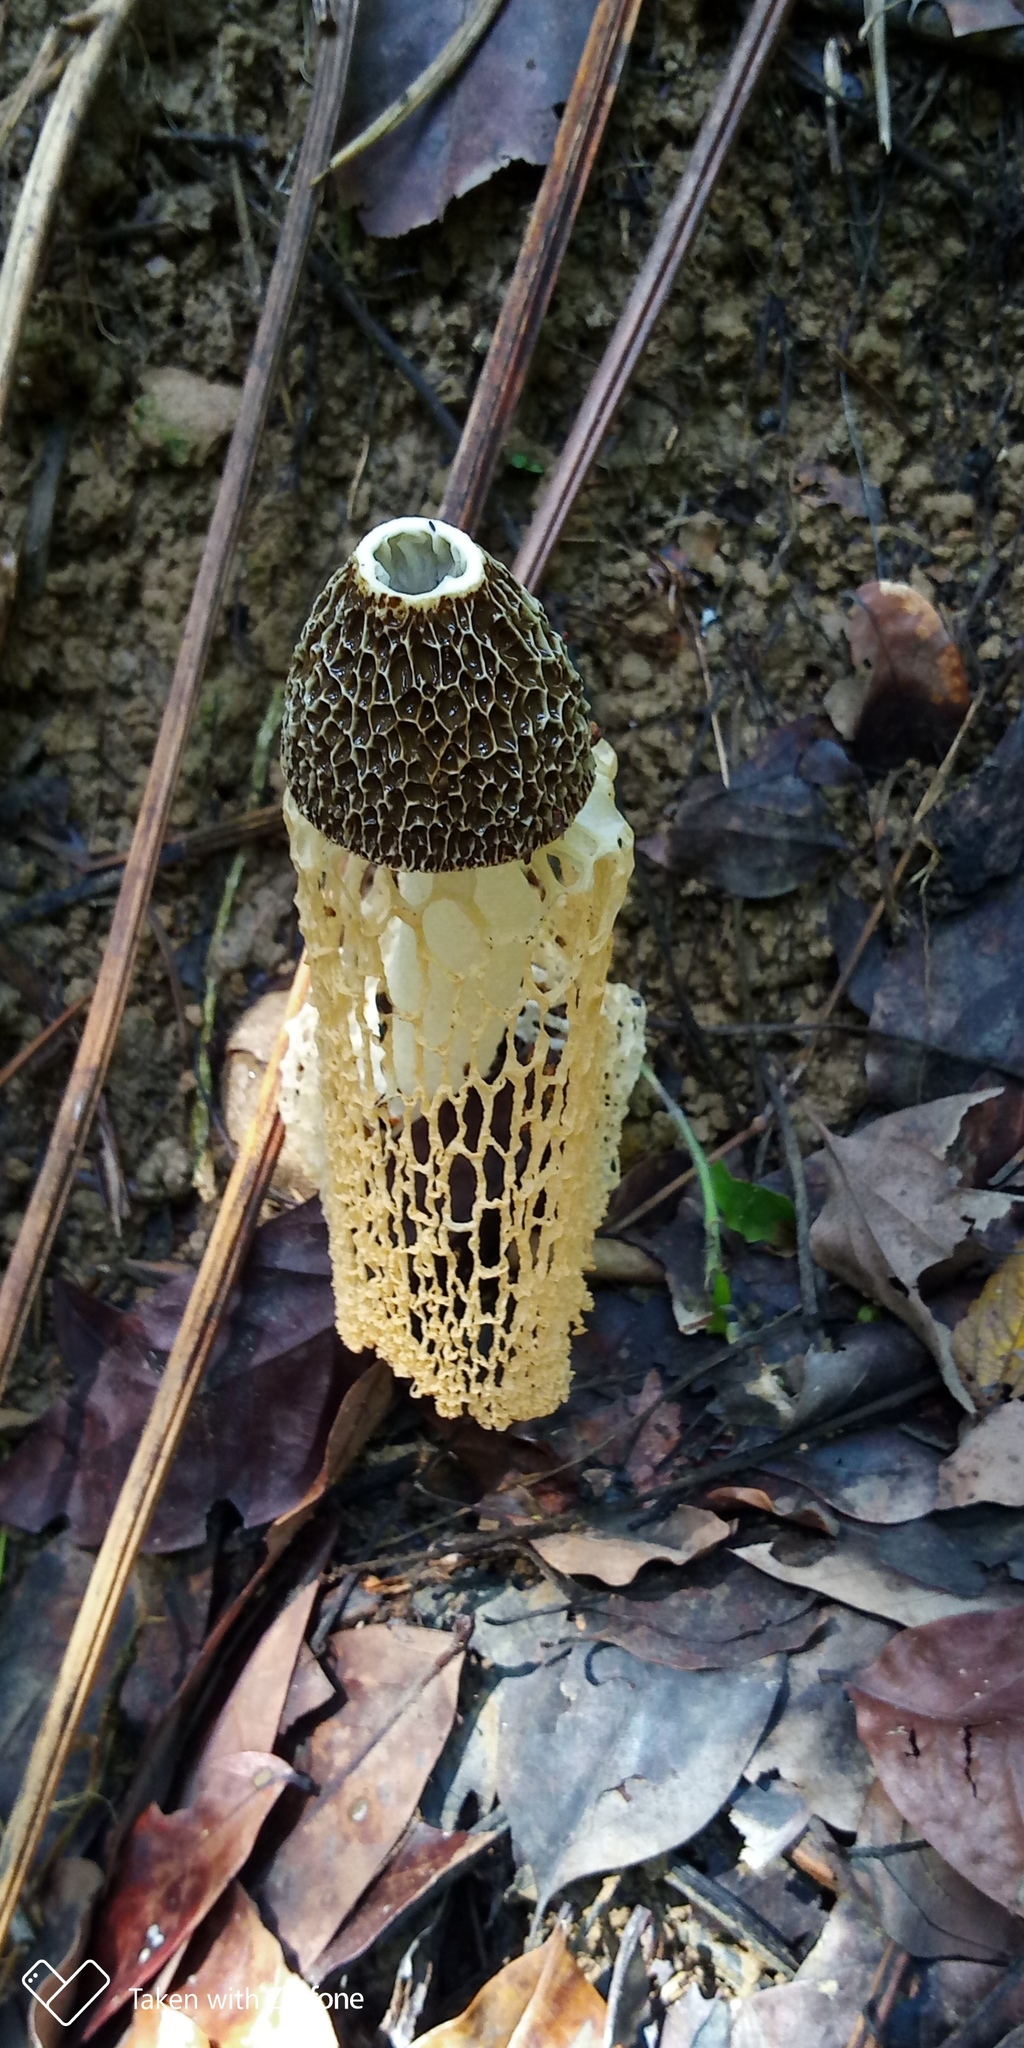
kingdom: Fungi
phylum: Basidiomycota
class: Agaricomycetes
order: Phallales
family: Phallaceae
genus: Phallus
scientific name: Phallus lutescens
